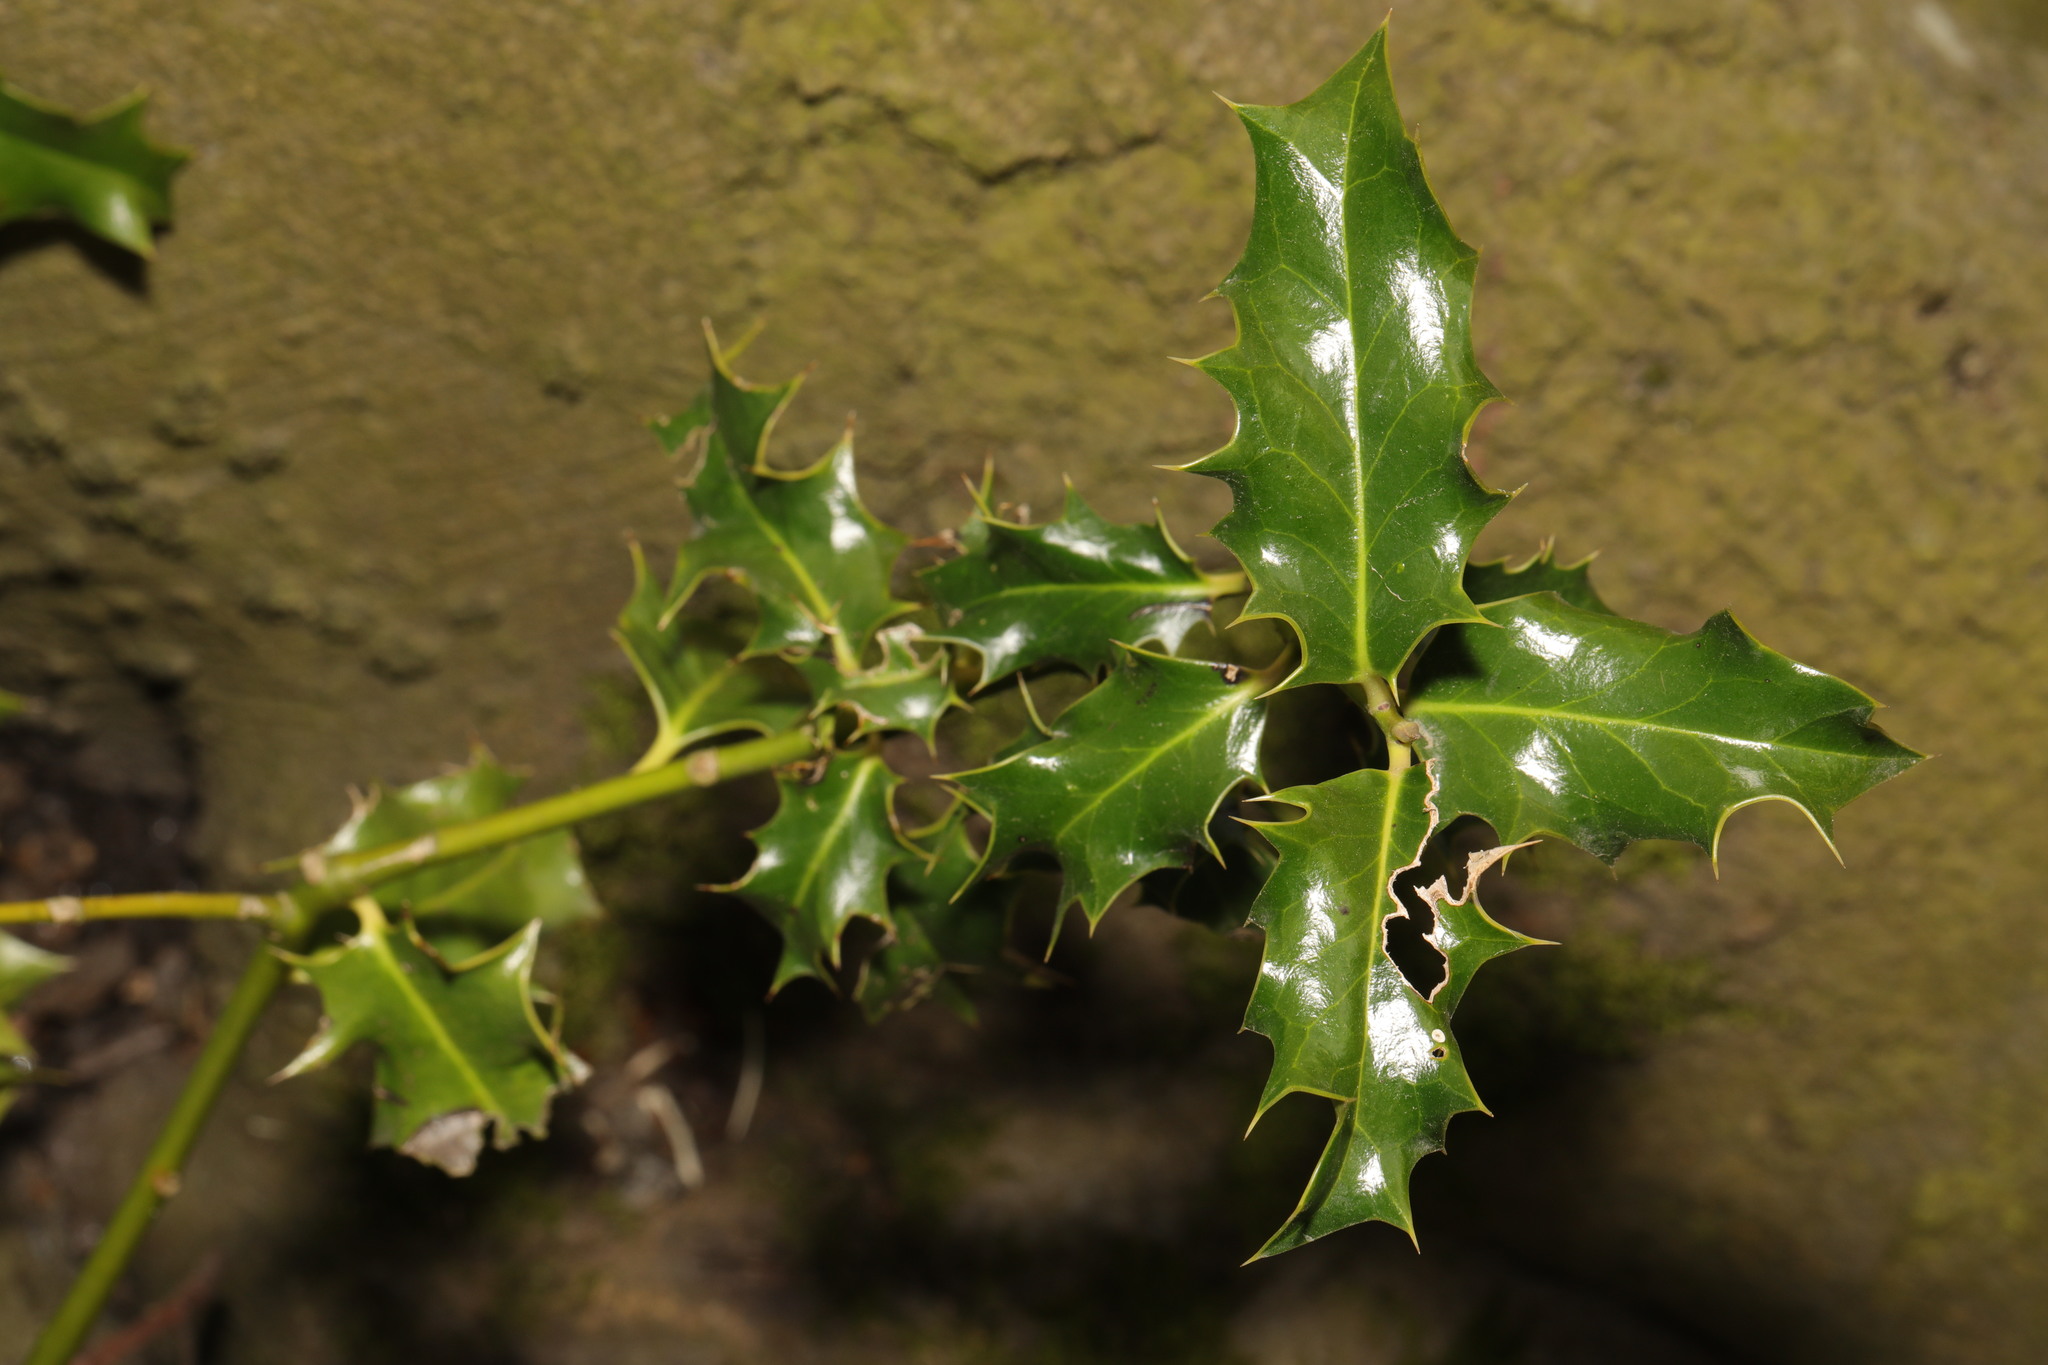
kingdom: Plantae
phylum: Tracheophyta
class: Magnoliopsida
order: Aquifoliales
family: Aquifoliaceae
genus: Ilex
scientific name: Ilex aquifolium
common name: English holly
